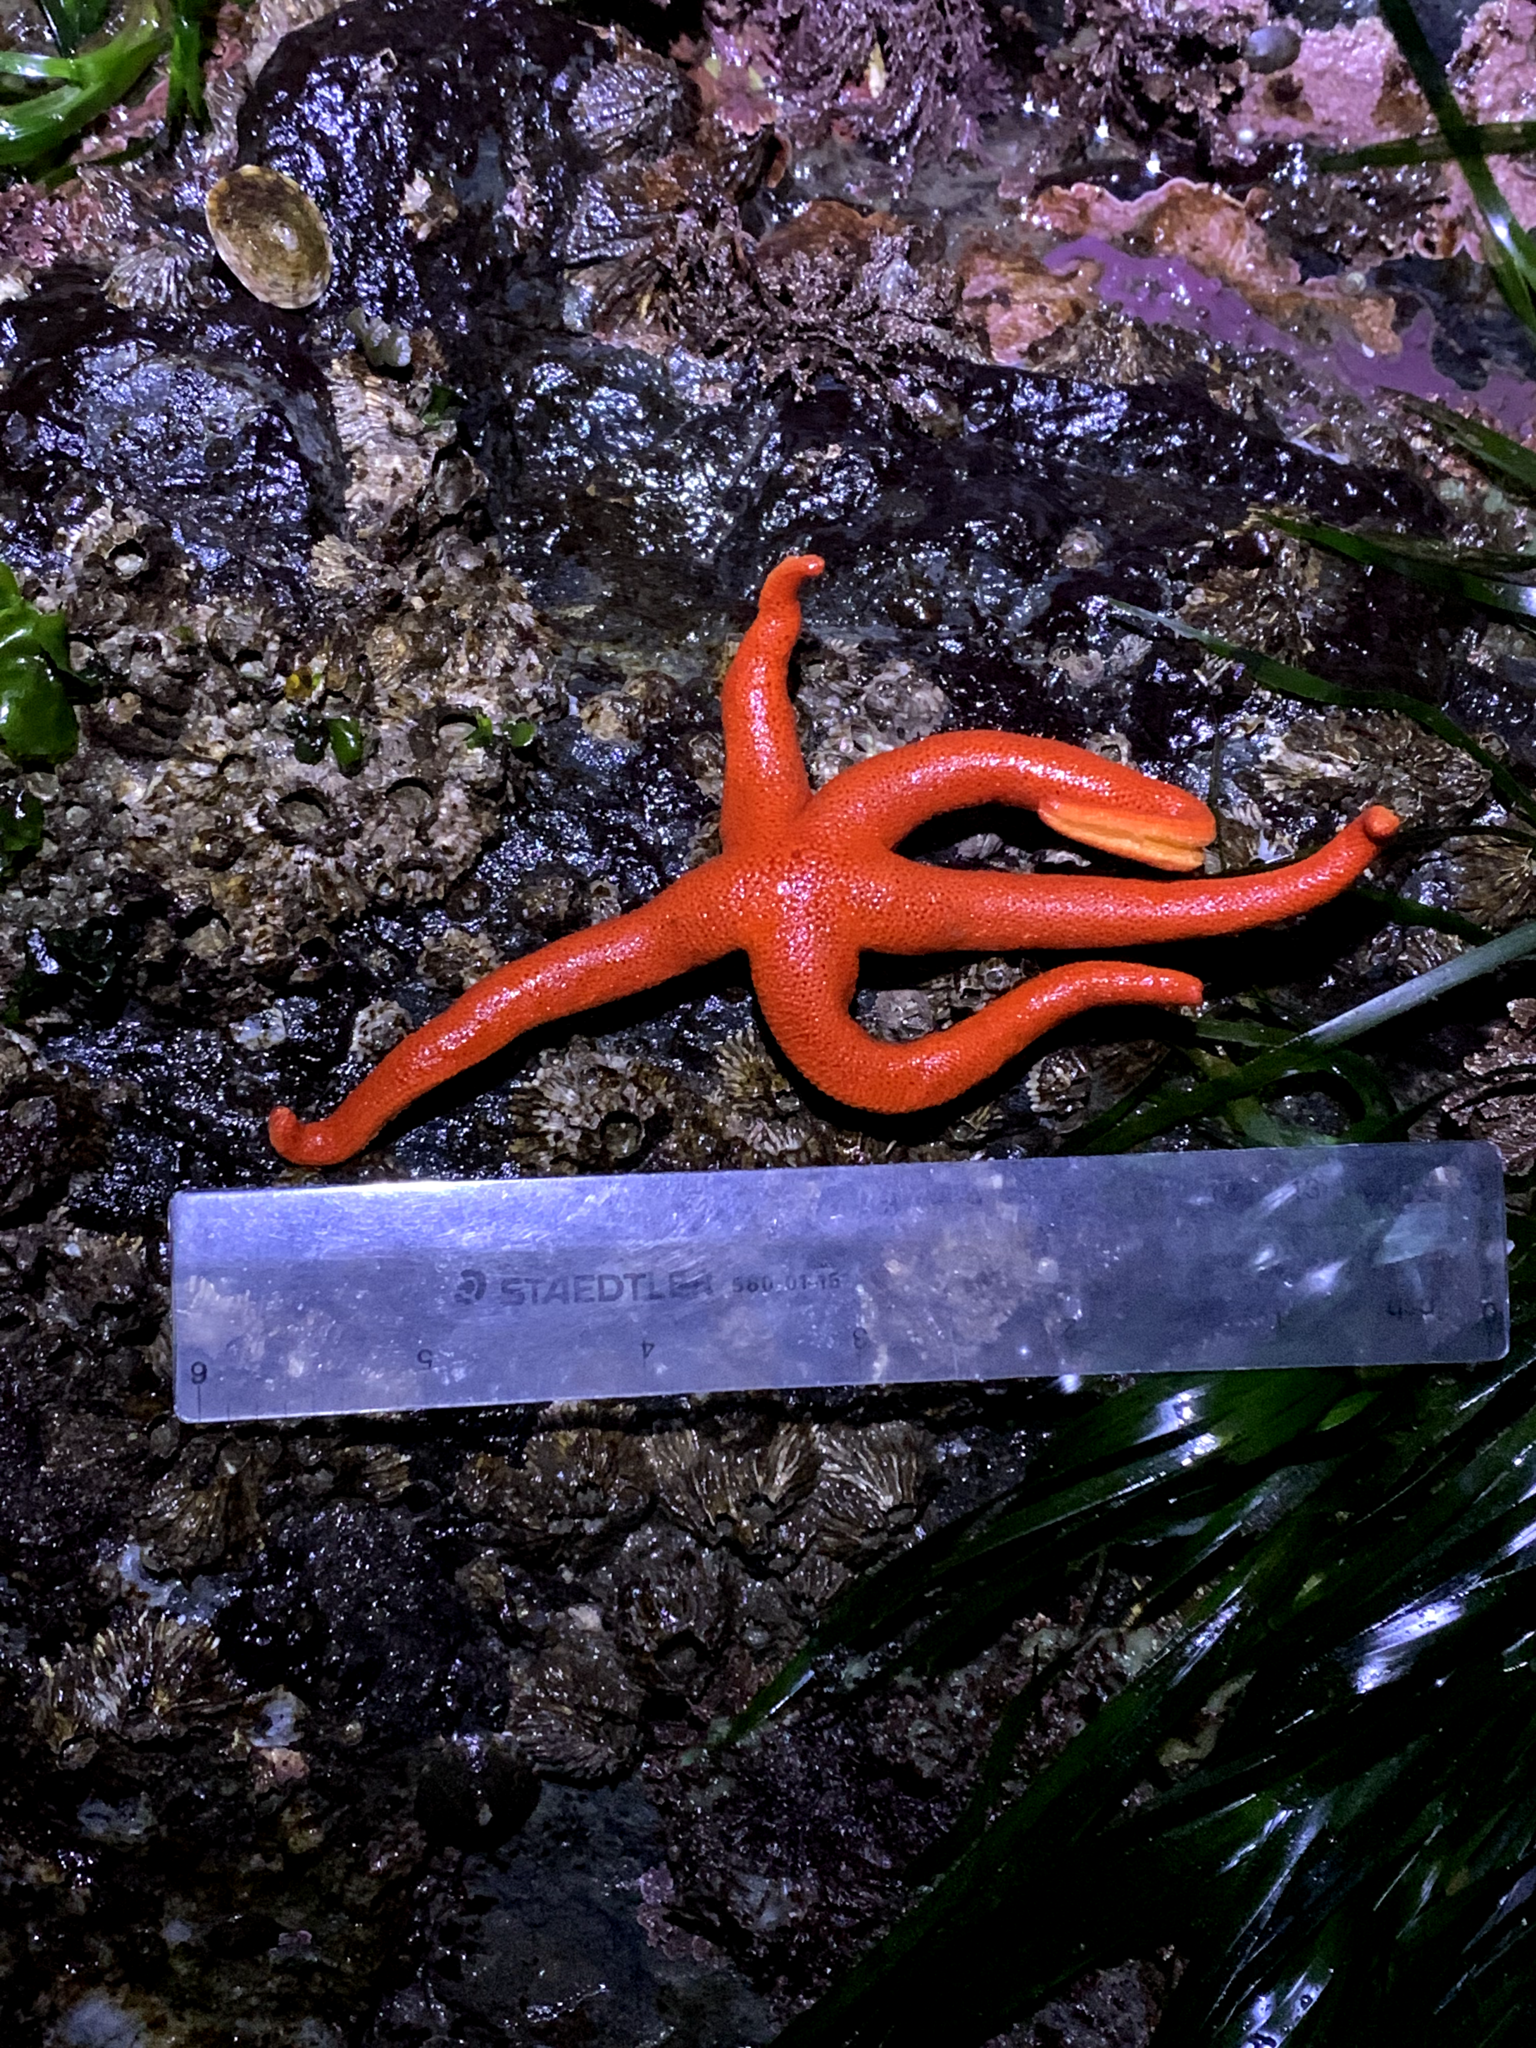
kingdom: Animalia
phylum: Echinodermata
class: Asteroidea
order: Spinulosida
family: Echinasteridae
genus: Henricia
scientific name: Henricia leviuscula
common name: Pacific blood star
